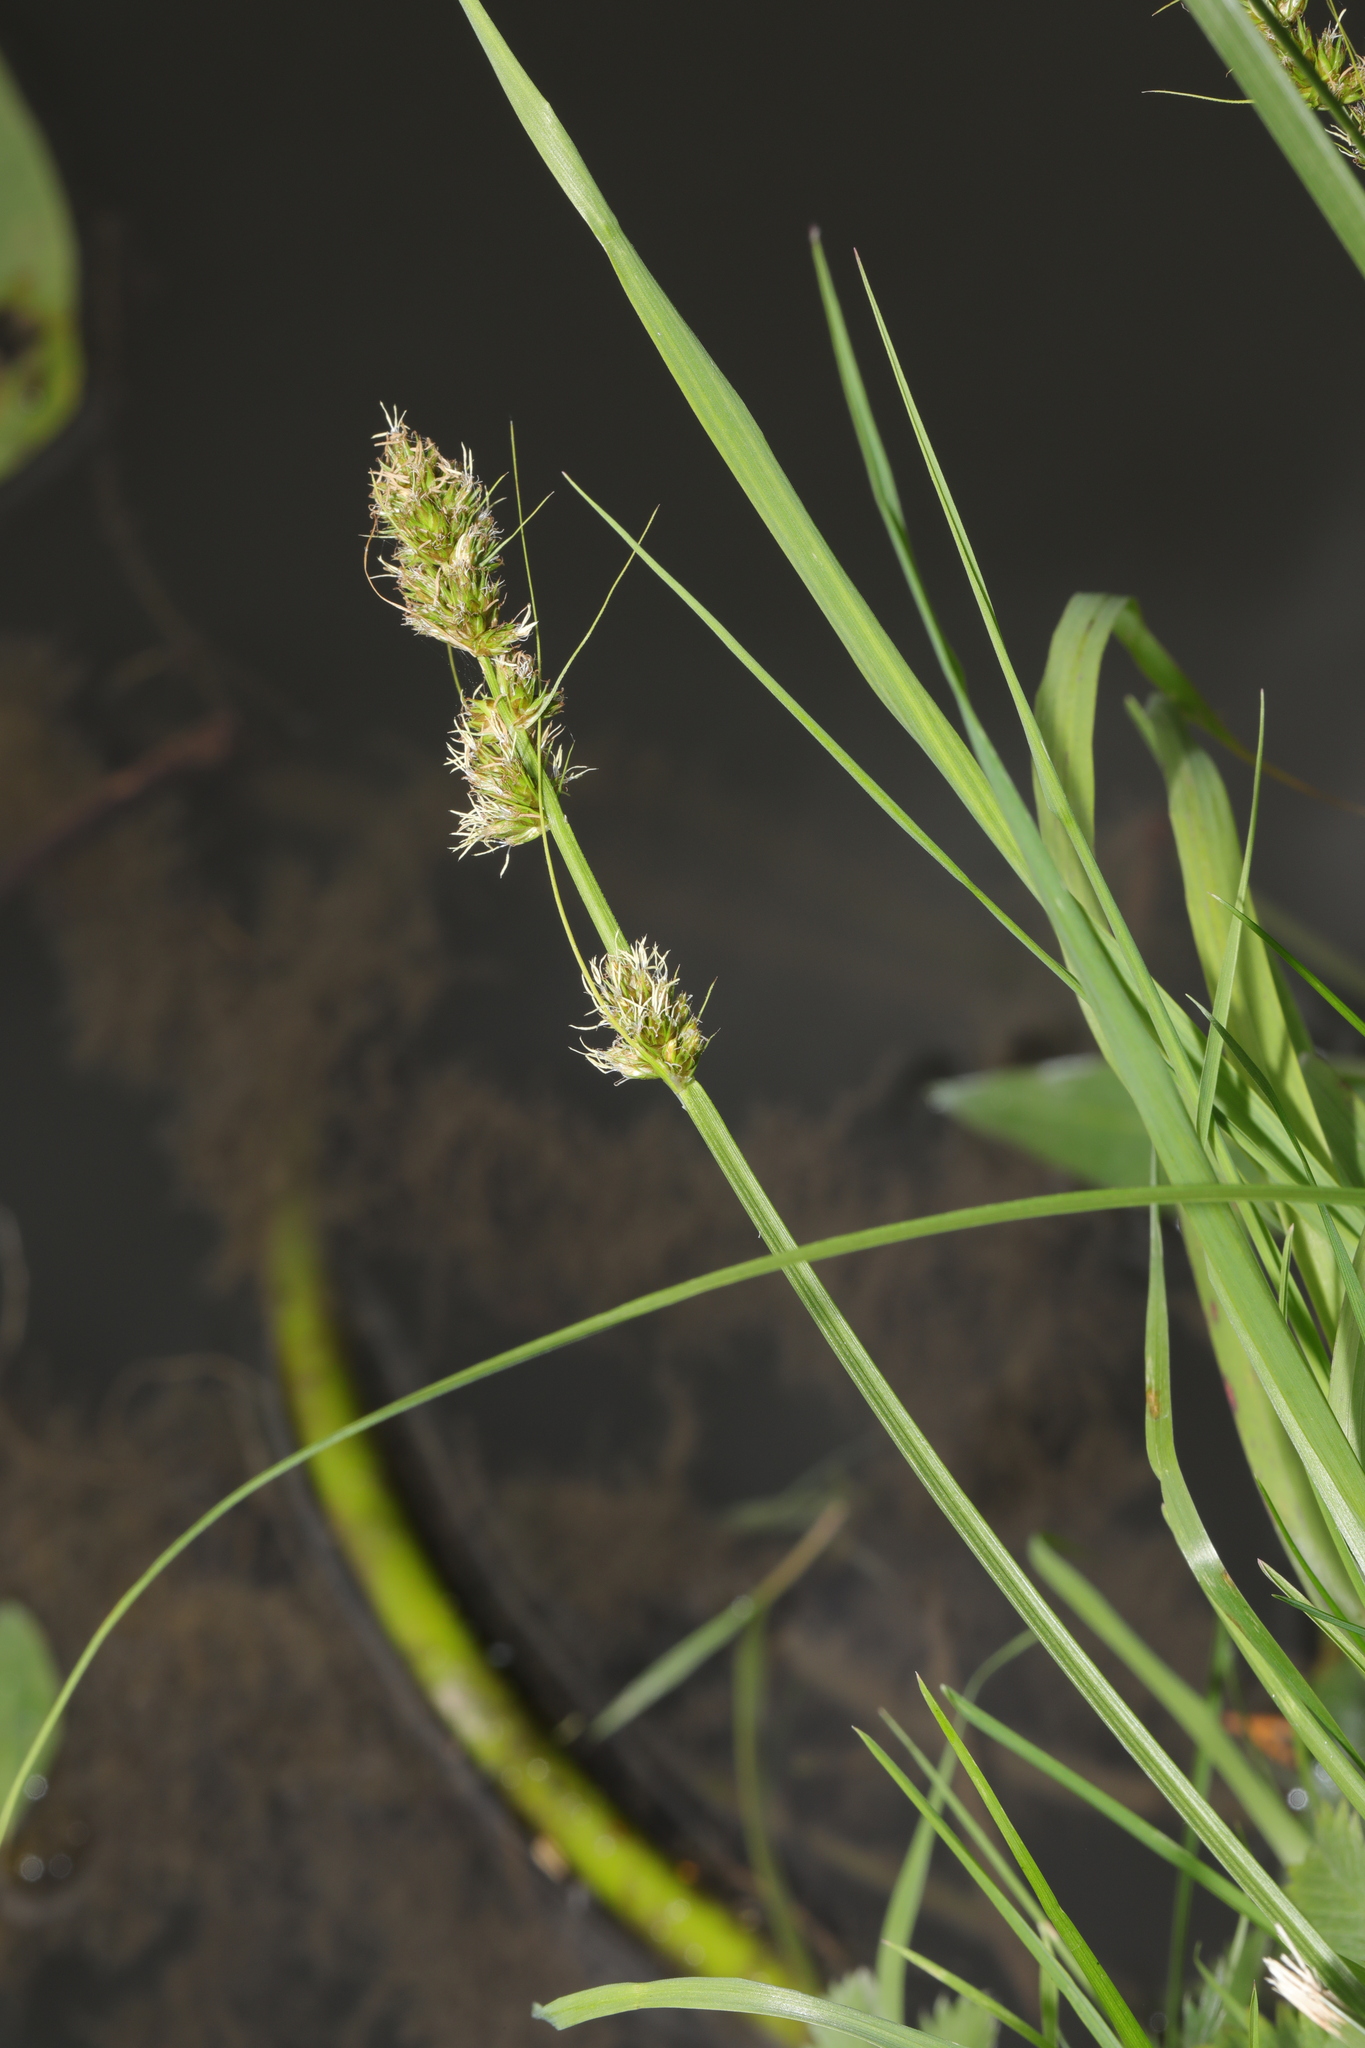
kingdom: Plantae
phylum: Tracheophyta
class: Liliopsida
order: Poales
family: Cyperaceae
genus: Carex
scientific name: Carex otrubae
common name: False fox-sedge
